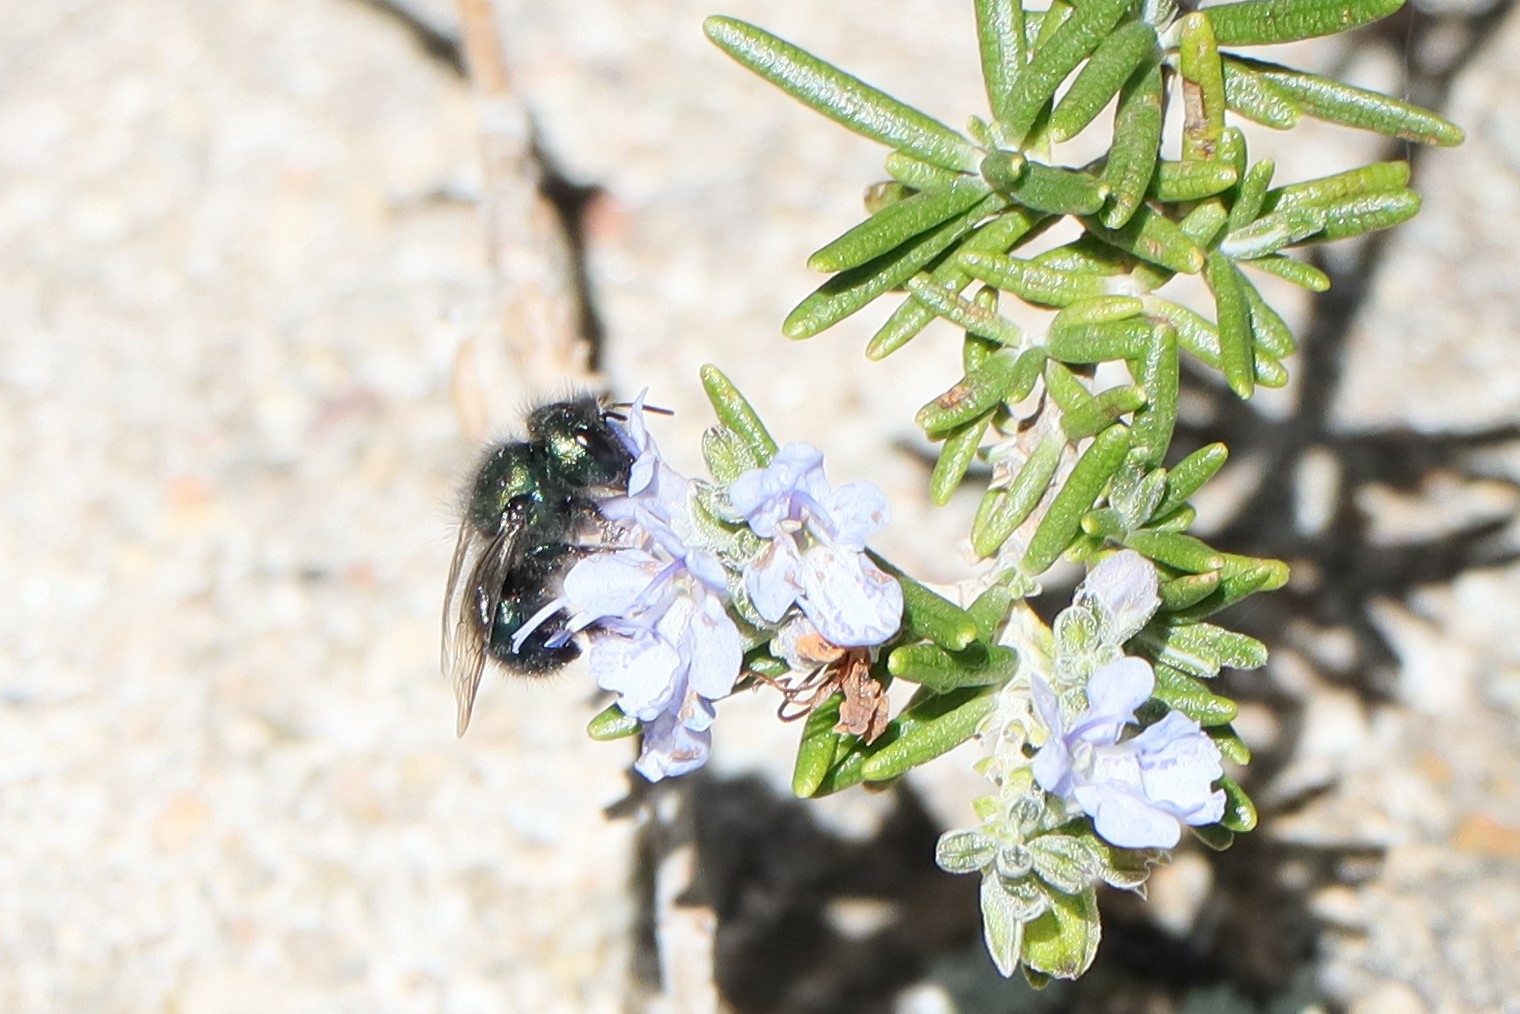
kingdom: Animalia
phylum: Arthropoda
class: Insecta
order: Hymenoptera
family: Megachilidae
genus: Osmia
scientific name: Osmia ribifloris
